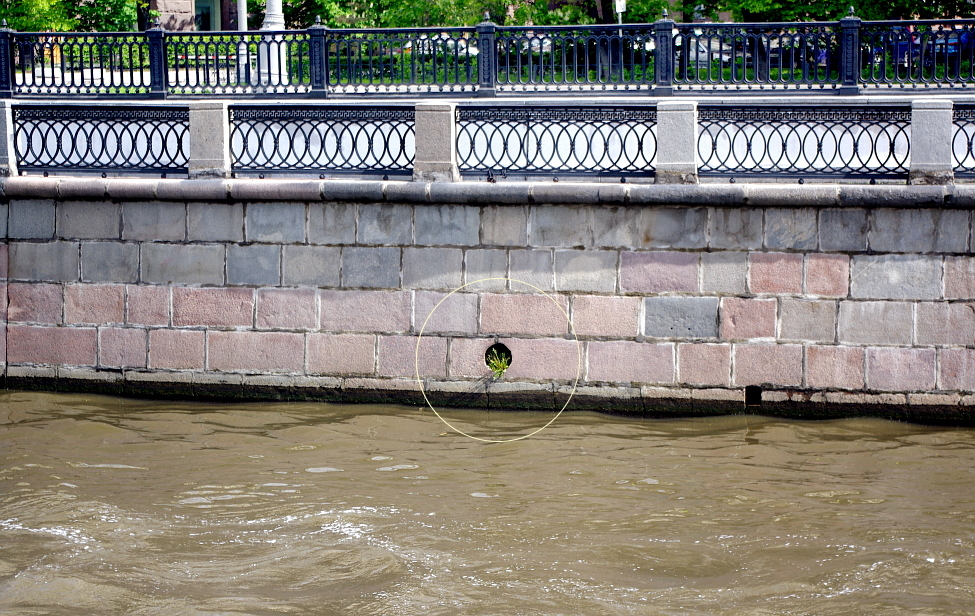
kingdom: Plantae
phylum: Tracheophyta
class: Magnoliopsida
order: Asterales
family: Asteraceae
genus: Taraxacum
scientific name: Taraxacum officinale
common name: Common dandelion
